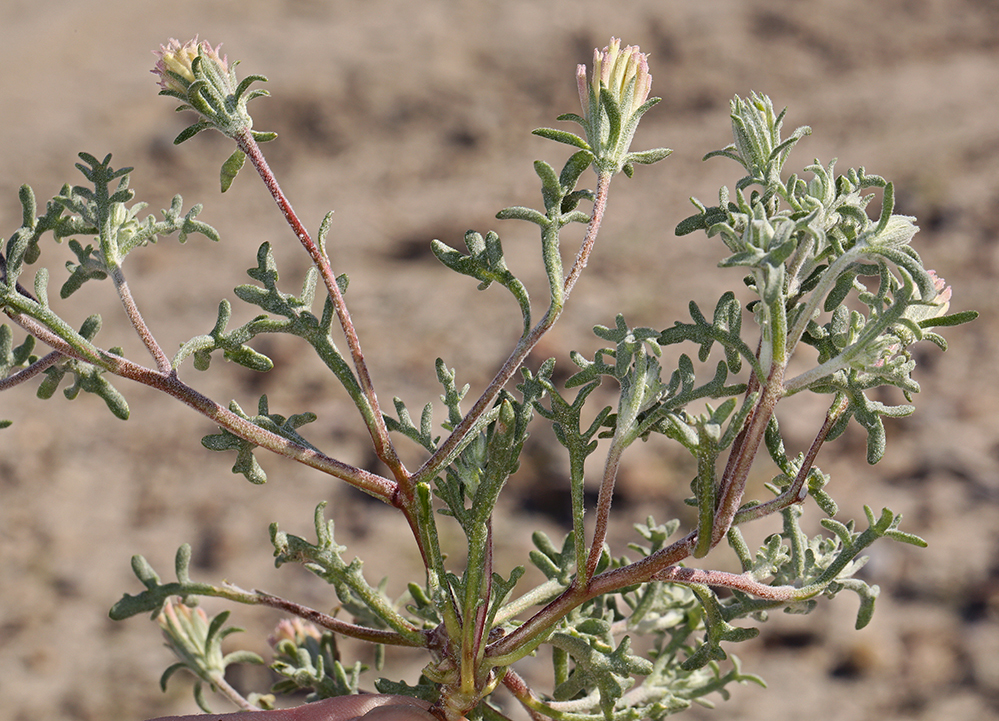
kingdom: Plantae
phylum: Tracheophyta
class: Magnoliopsida
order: Asterales
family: Asteraceae
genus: Chaenactis
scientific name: Chaenactis macrantha
